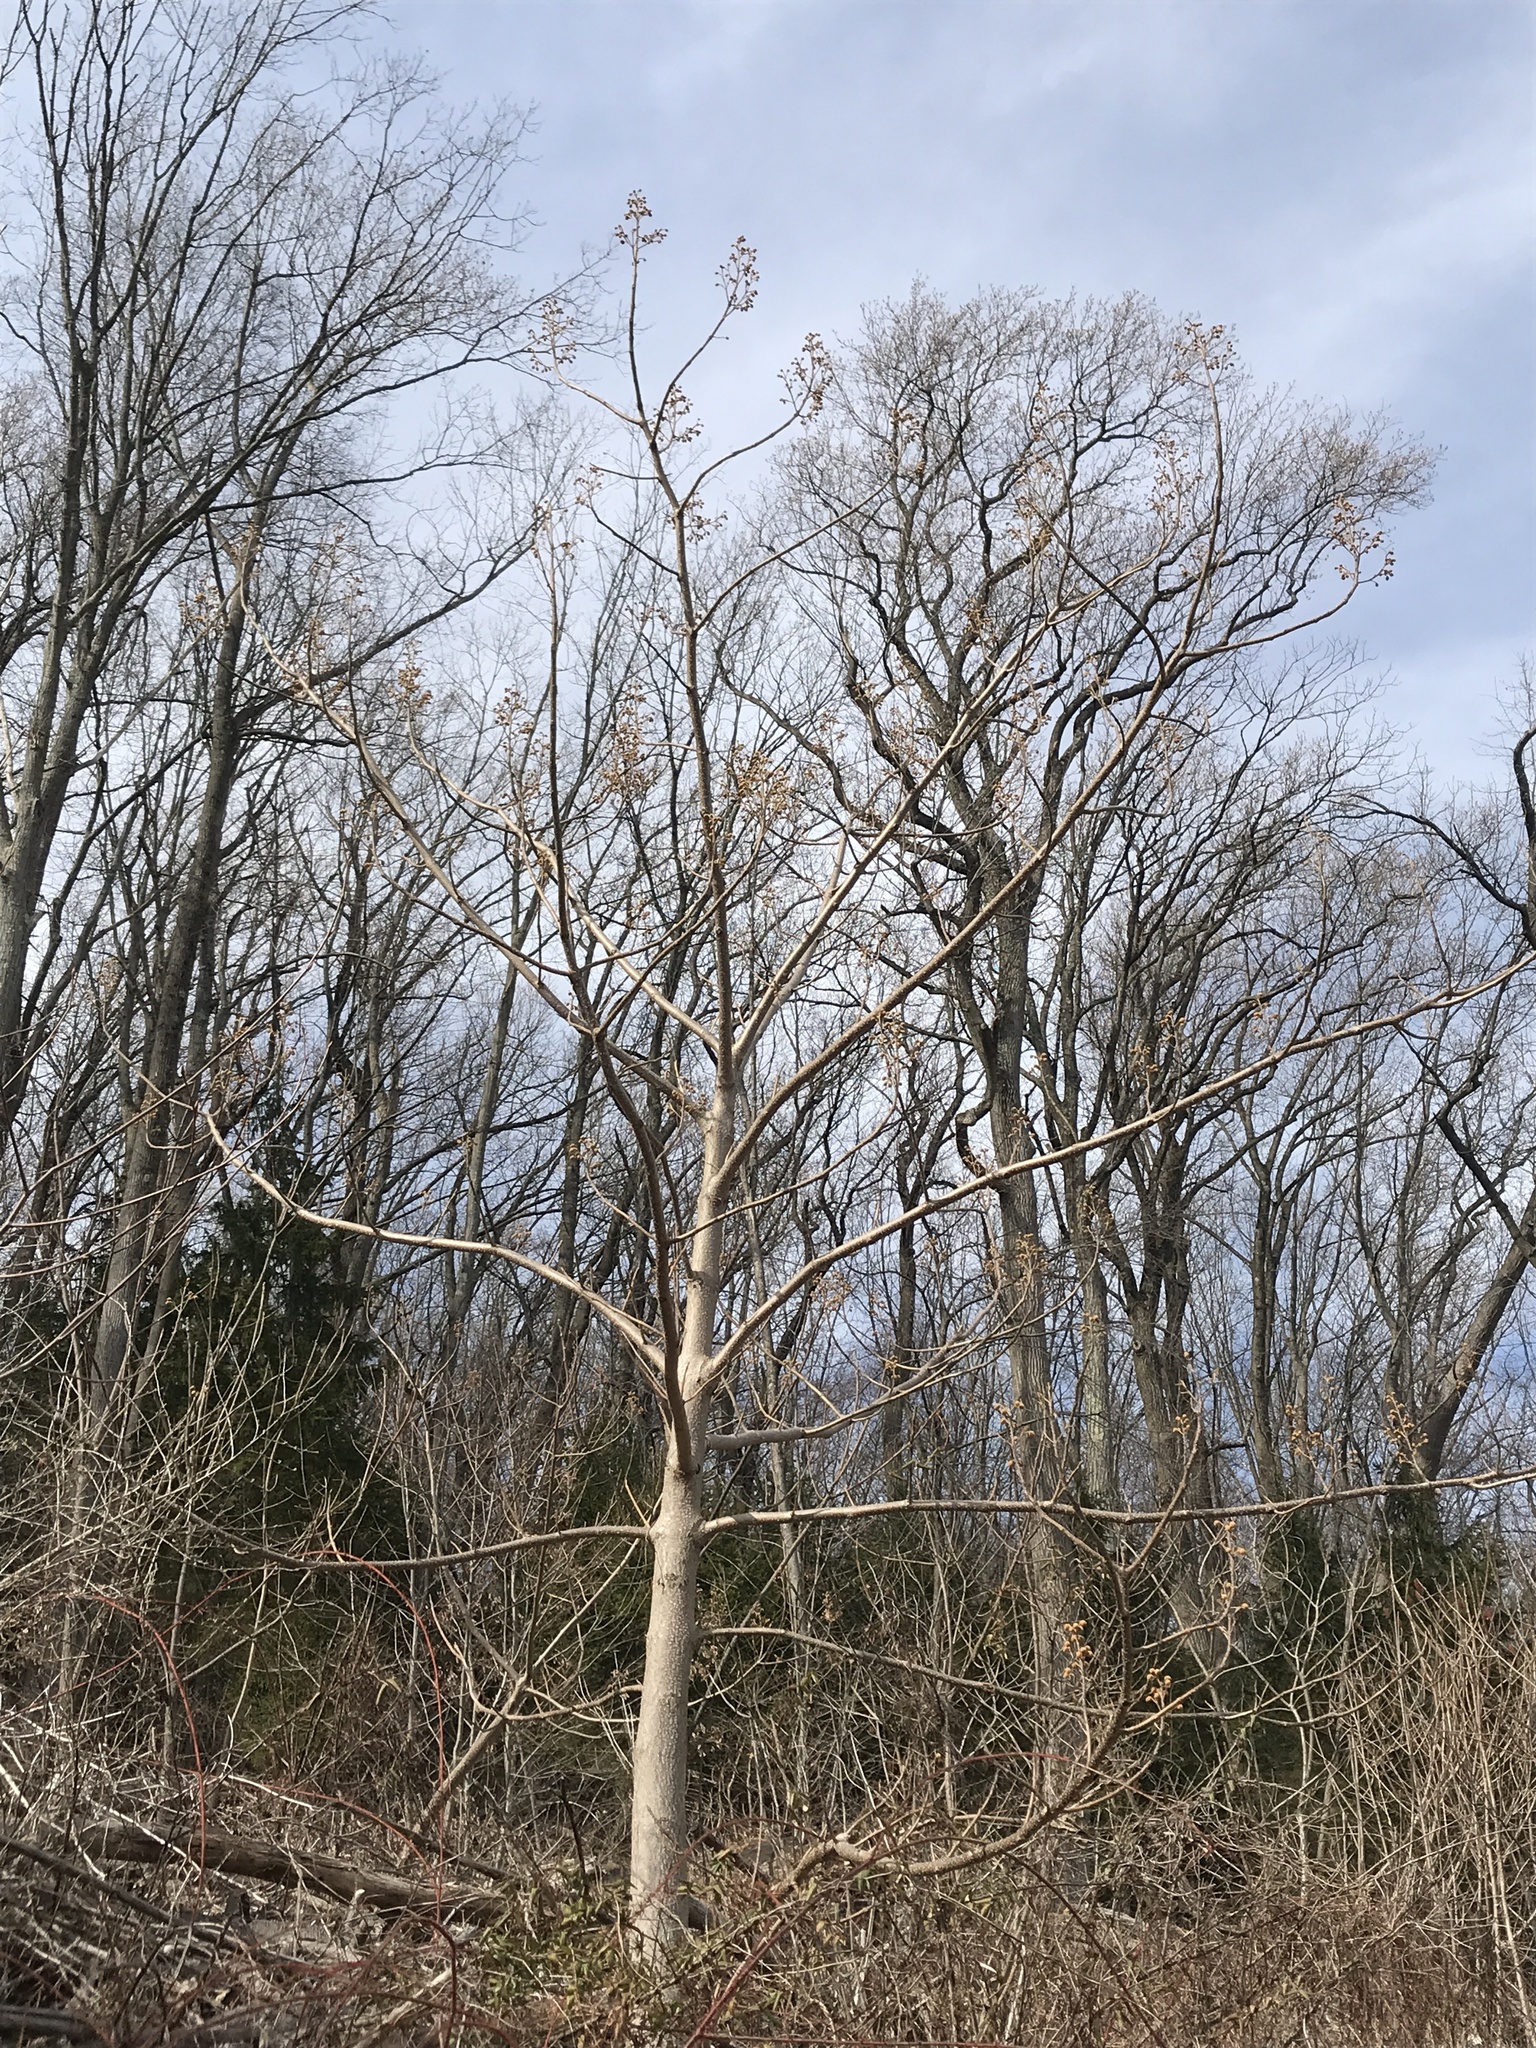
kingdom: Plantae
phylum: Tracheophyta
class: Magnoliopsida
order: Lamiales
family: Paulowniaceae
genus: Paulownia
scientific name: Paulownia tomentosa
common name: Foxglove-tree
